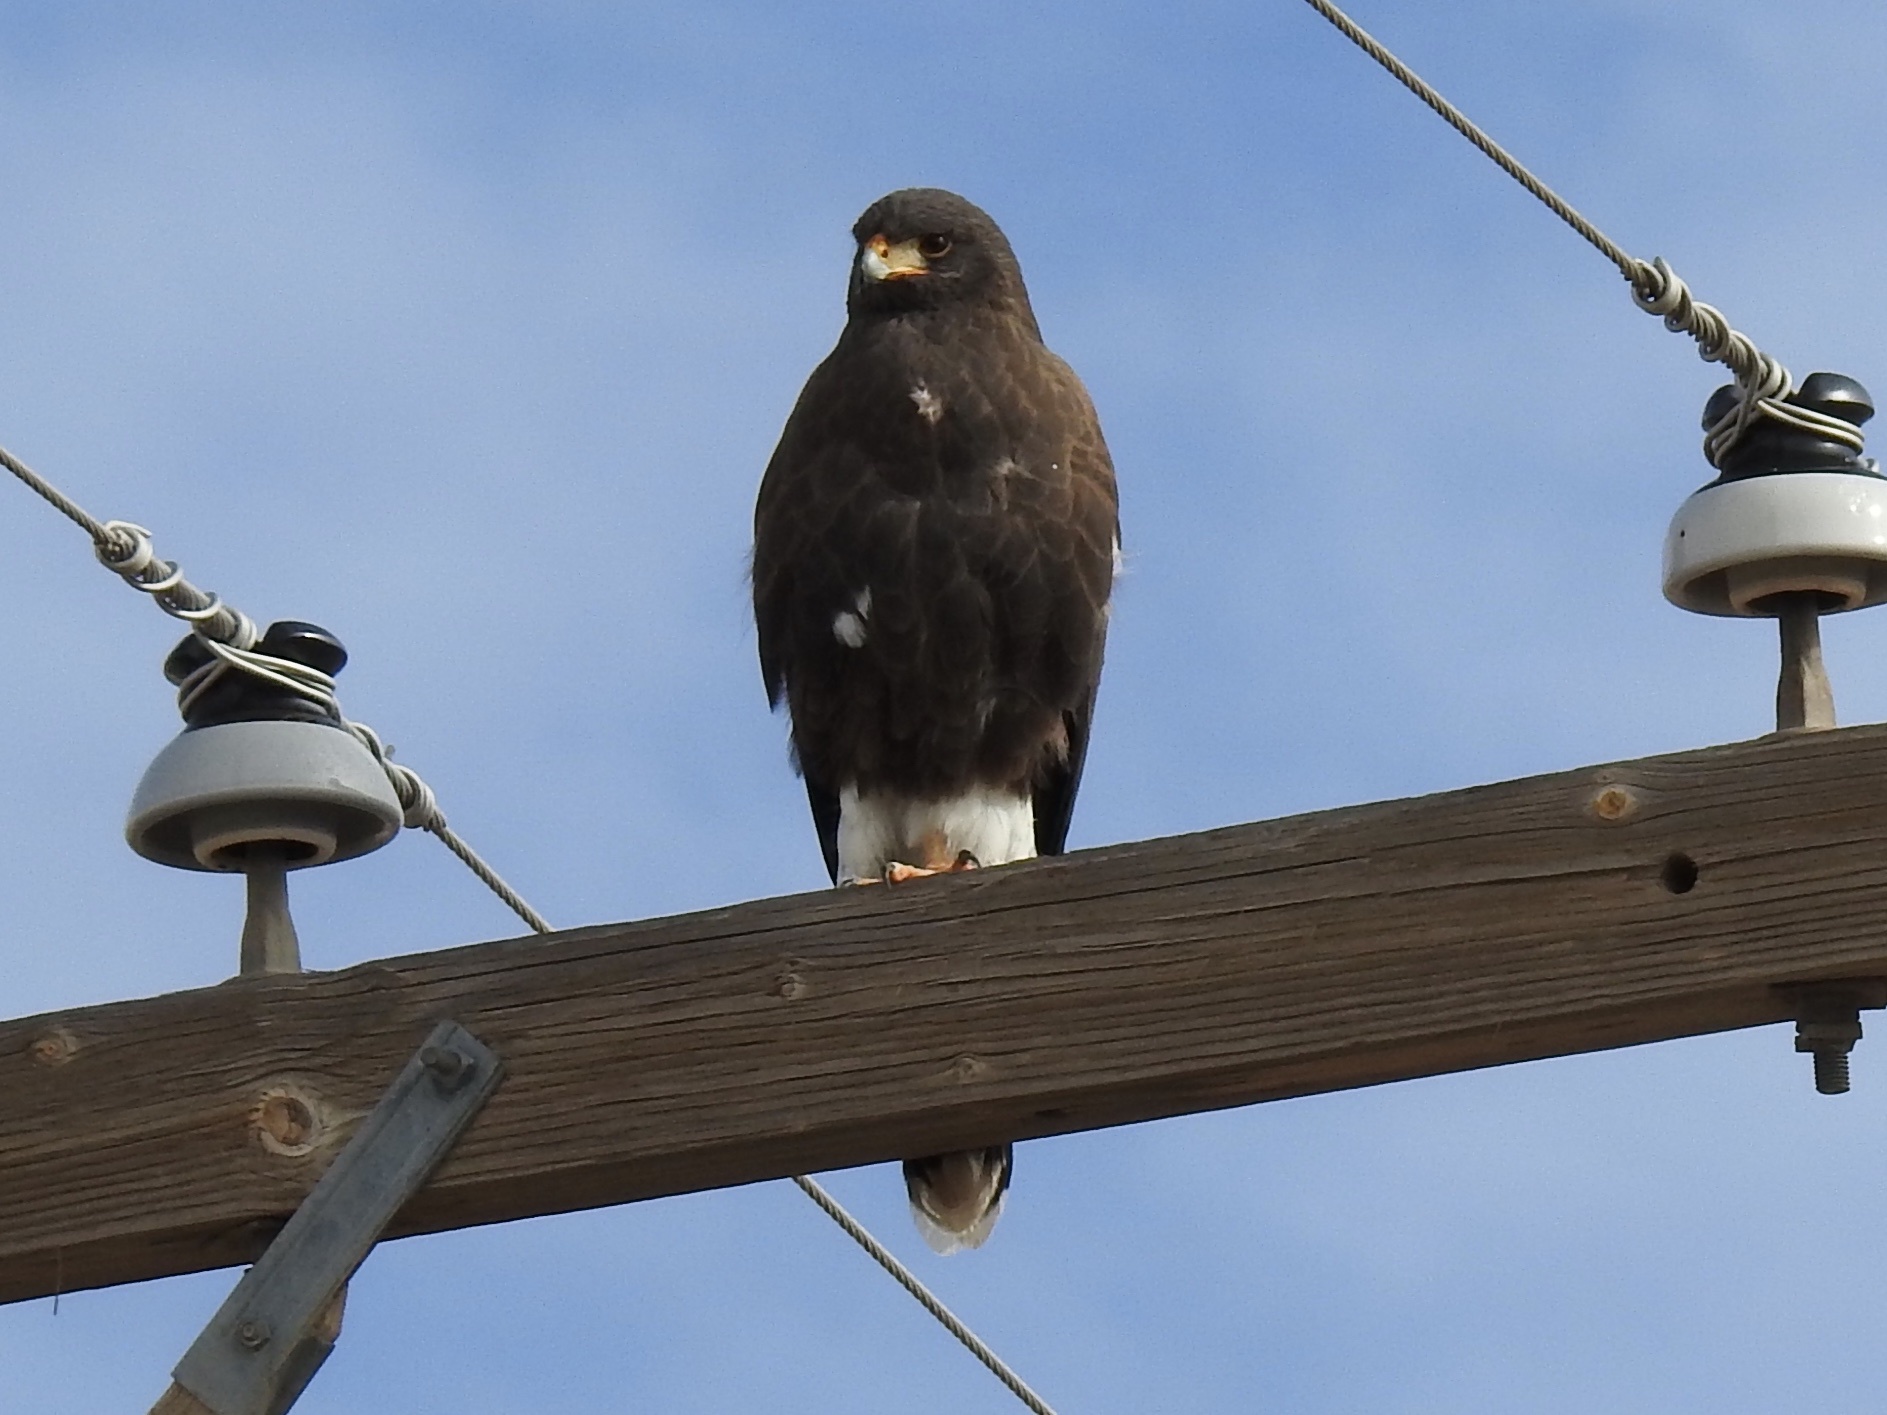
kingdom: Animalia
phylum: Chordata
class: Aves
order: Accipitriformes
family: Accipitridae
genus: Parabuteo
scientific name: Parabuteo unicinctus
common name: Harris's hawk
